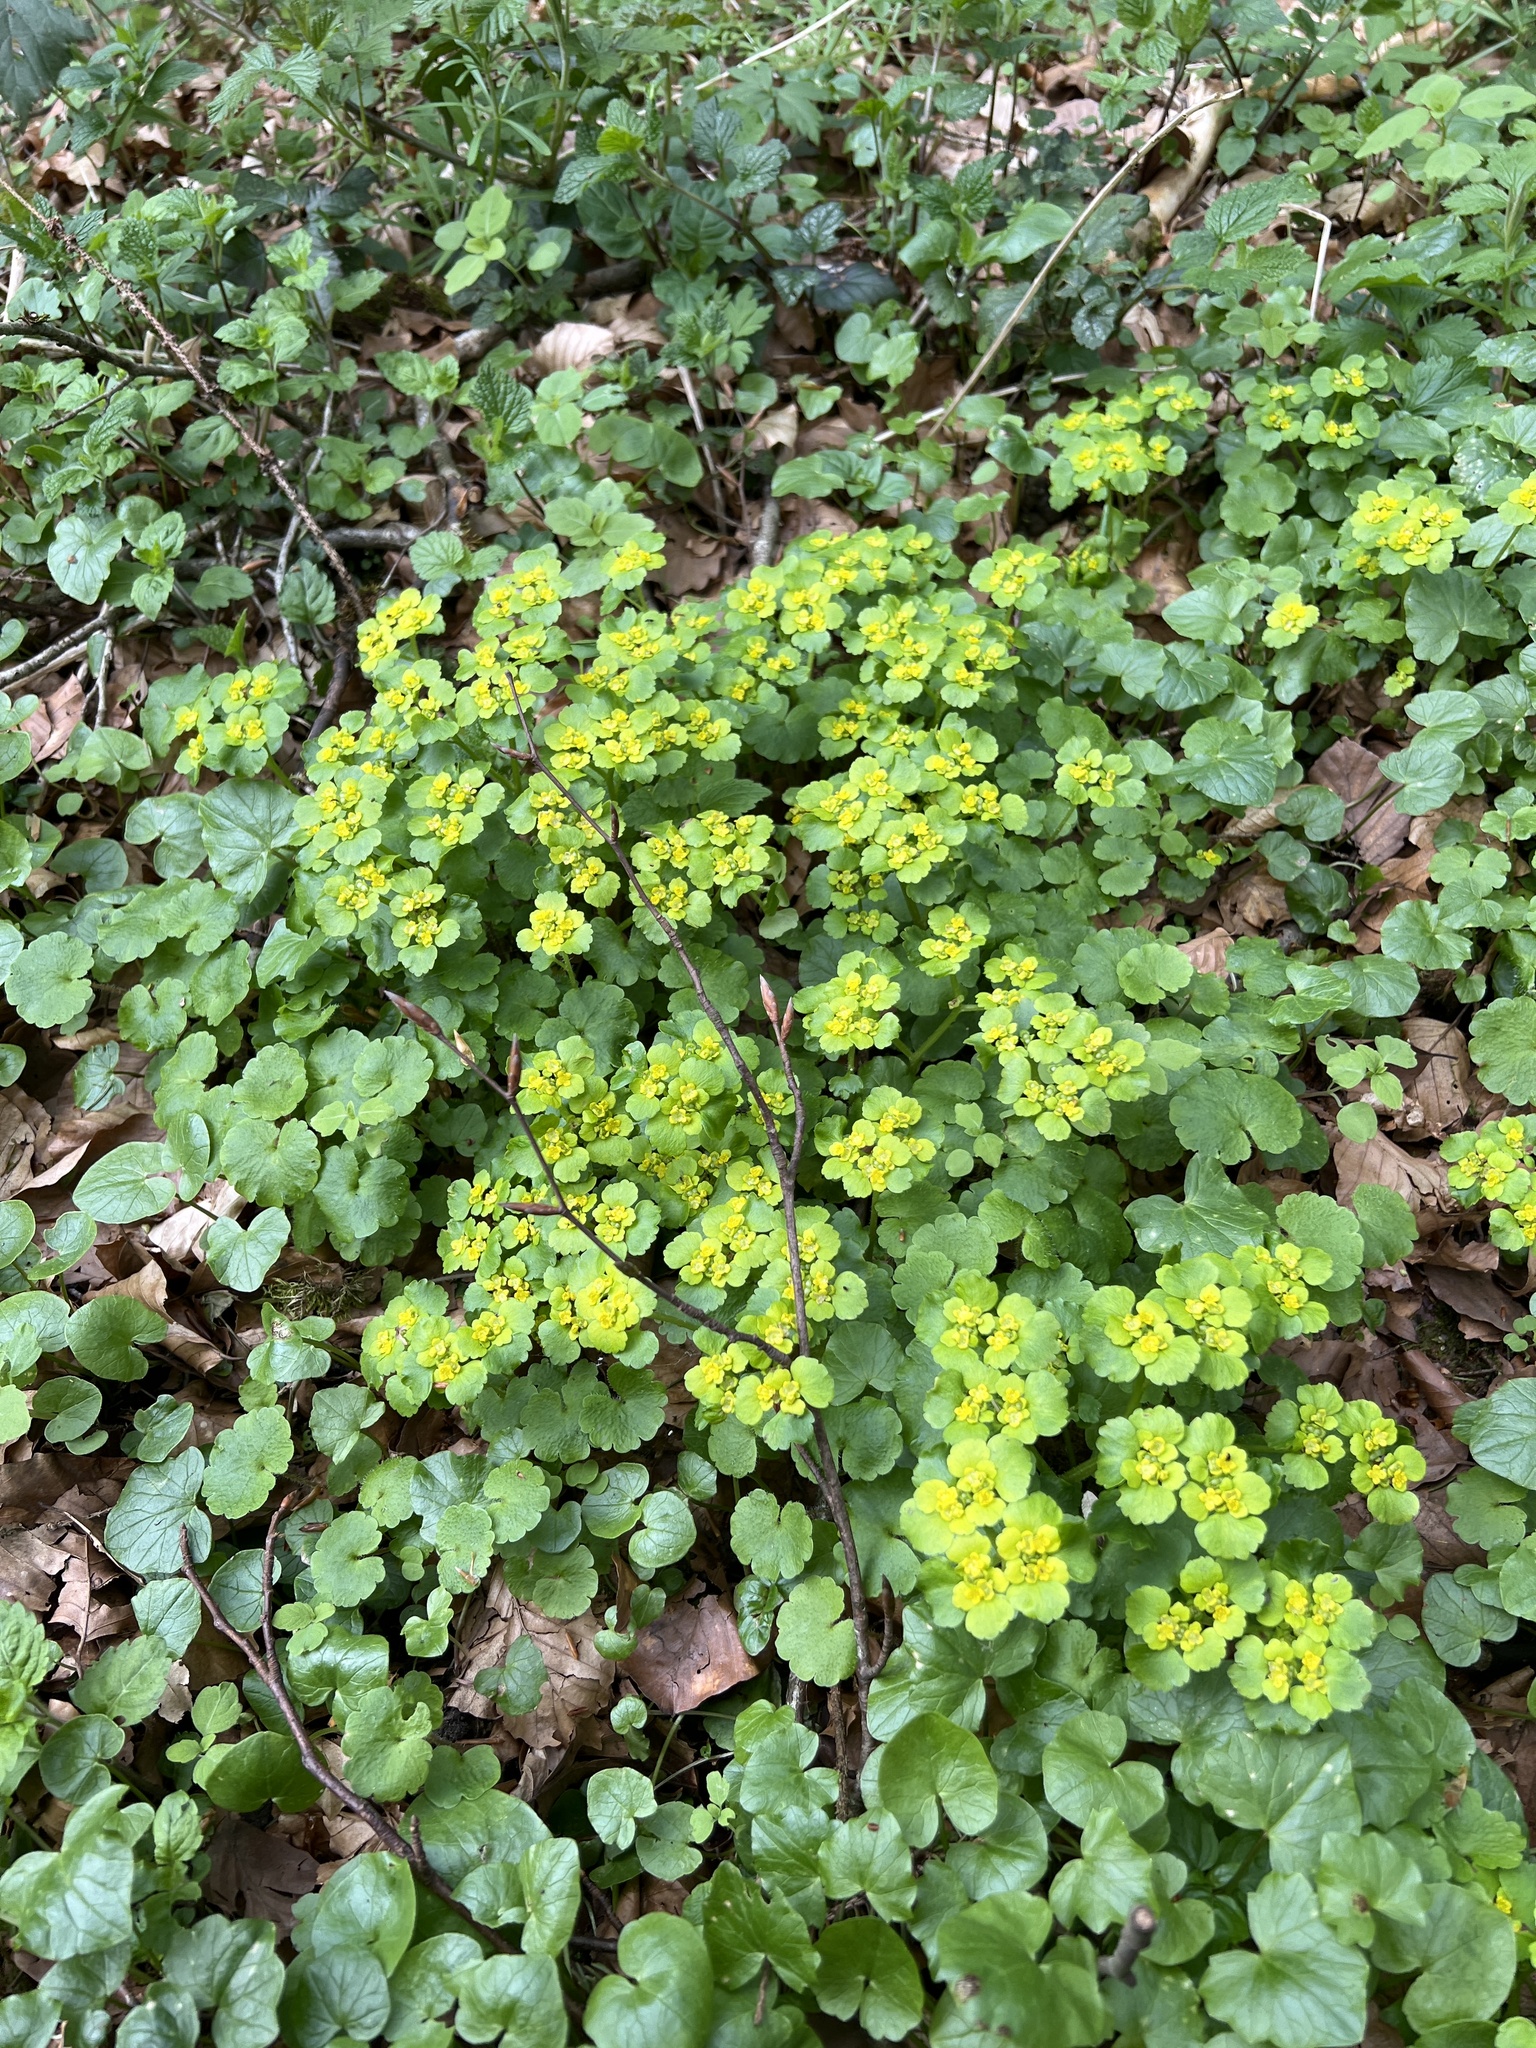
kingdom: Plantae
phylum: Tracheophyta
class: Magnoliopsida
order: Saxifragales
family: Saxifragaceae
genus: Chrysosplenium
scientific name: Chrysosplenium alternifolium
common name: Alternate-leaved golden-saxifrage
